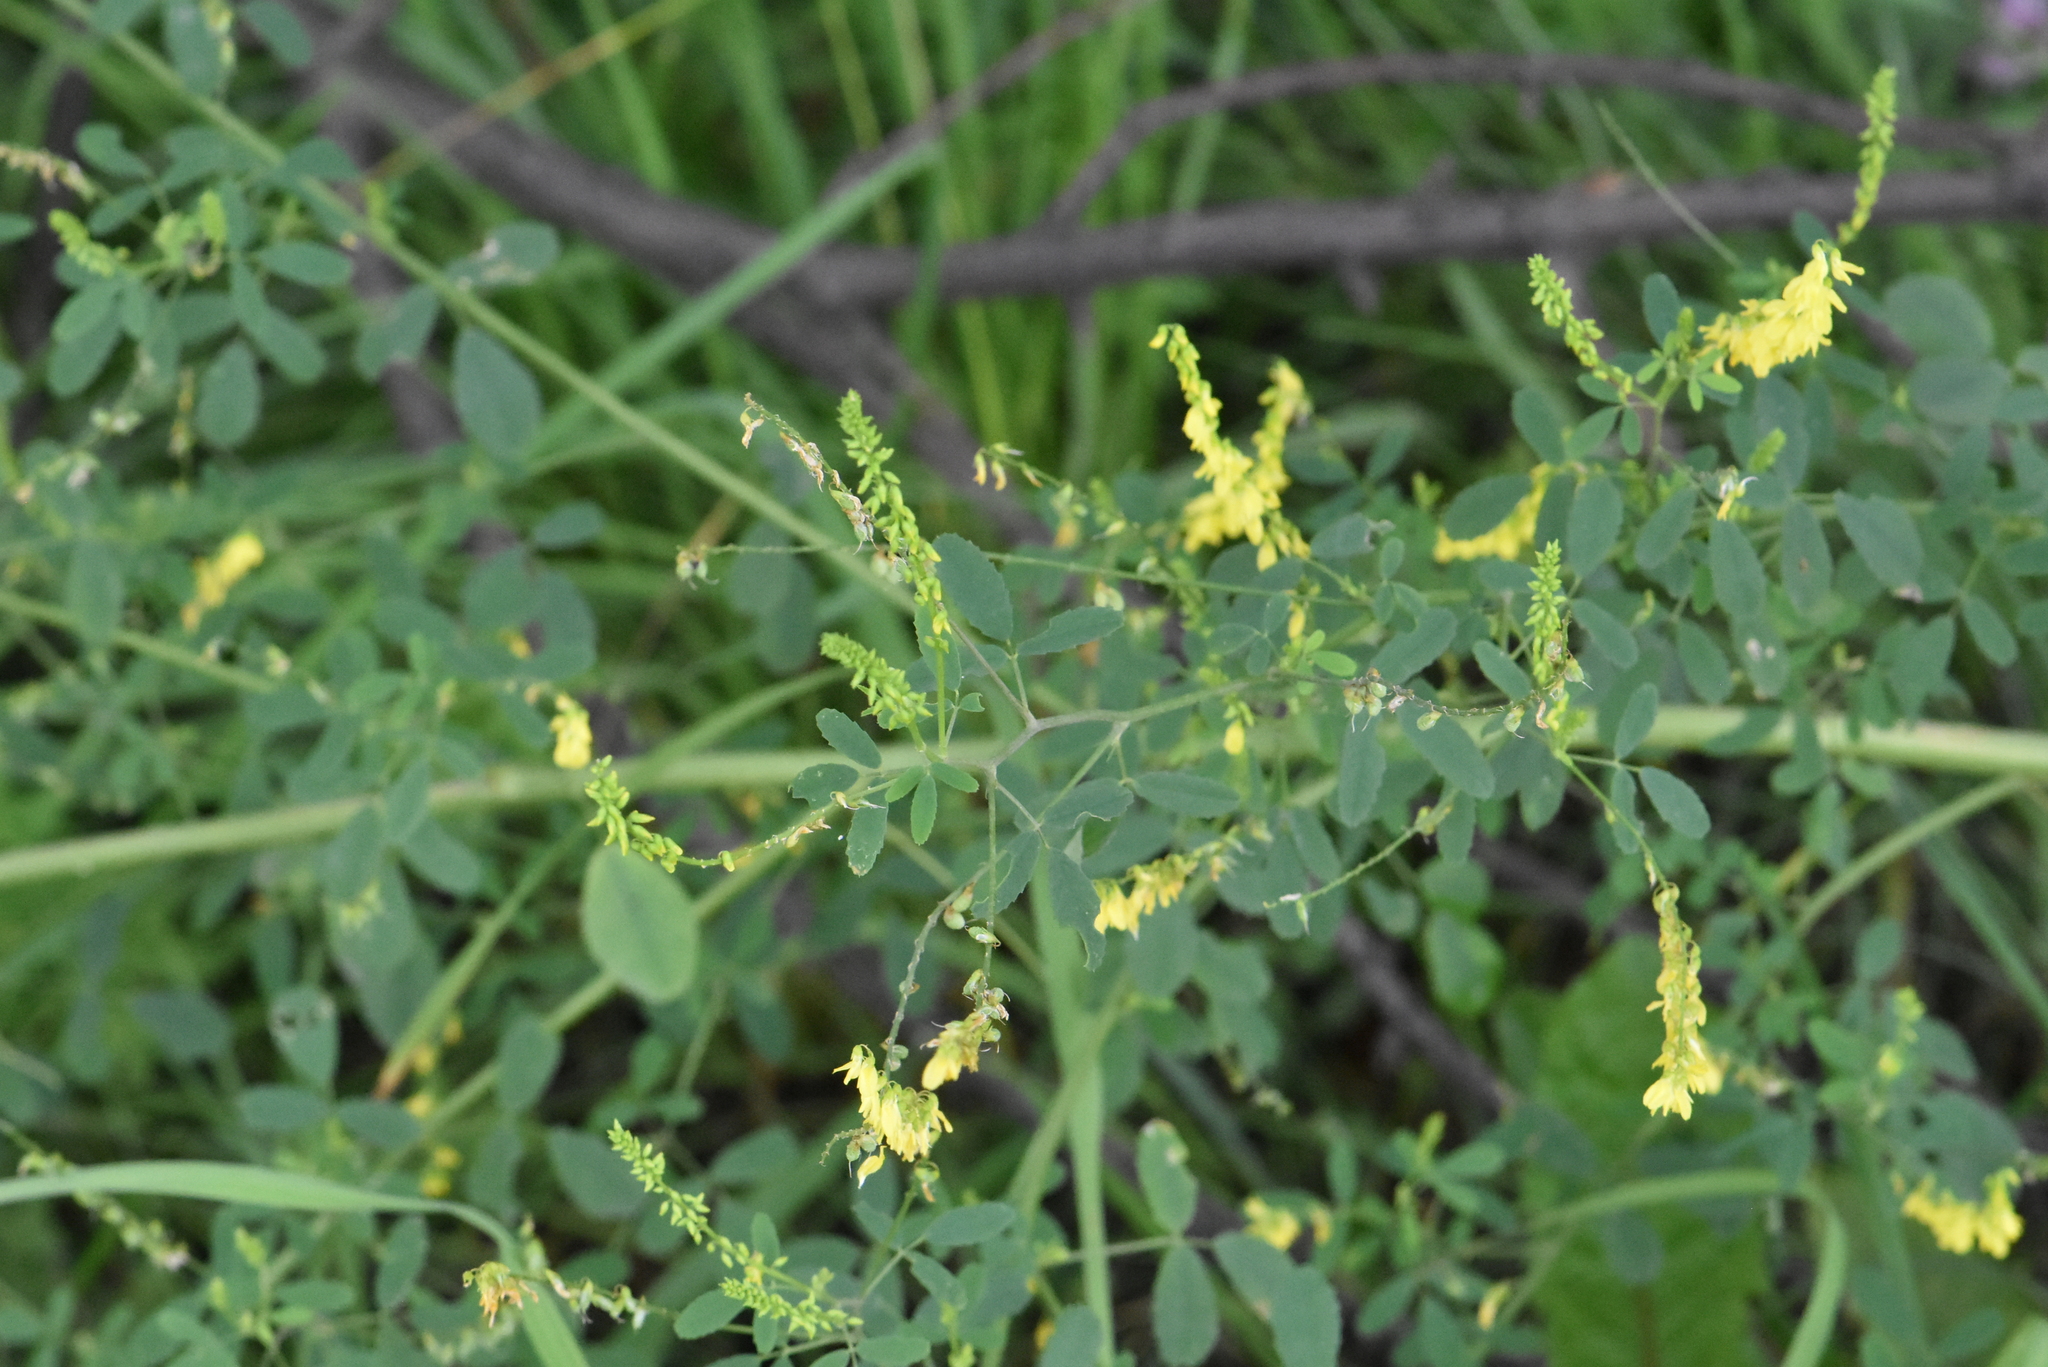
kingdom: Plantae
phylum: Tracheophyta
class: Magnoliopsida
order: Fabales
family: Fabaceae
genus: Melilotus
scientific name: Melilotus officinalis
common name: Sweetclover
